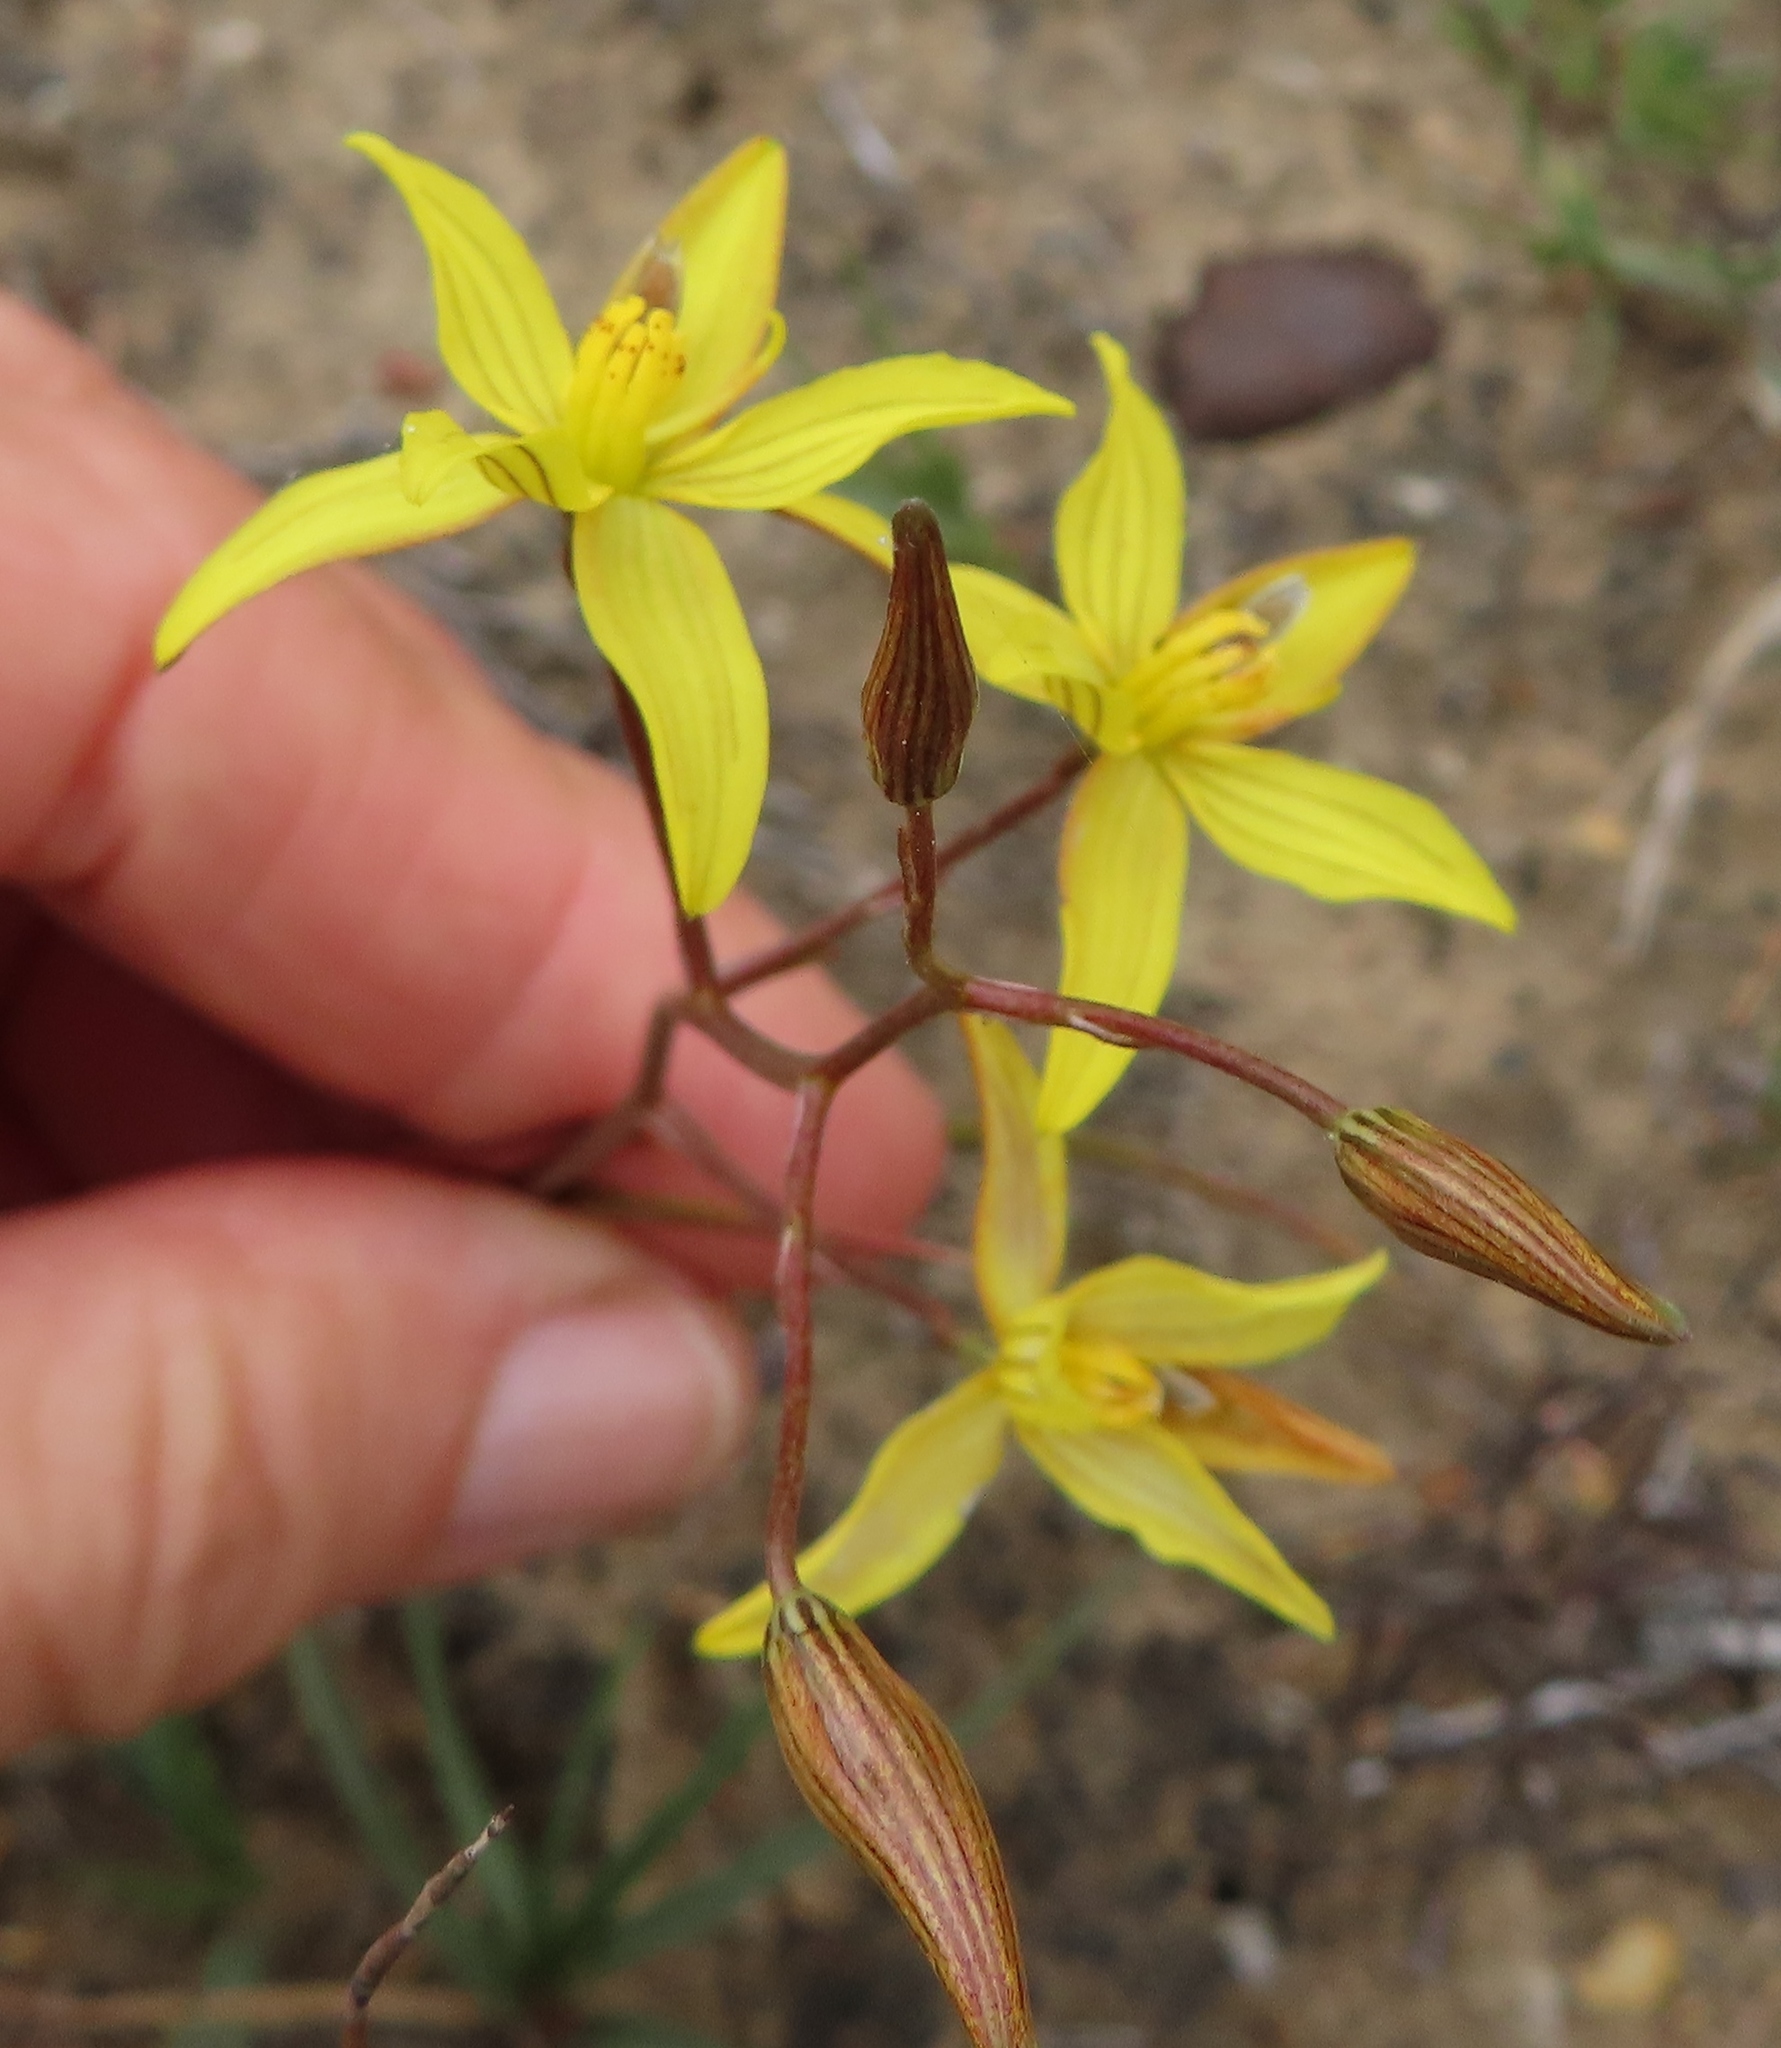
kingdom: Plantae
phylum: Tracheophyta
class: Liliopsida
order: Asparagales
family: Tecophilaeaceae
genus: Cyanella
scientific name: Cyanella lutea
